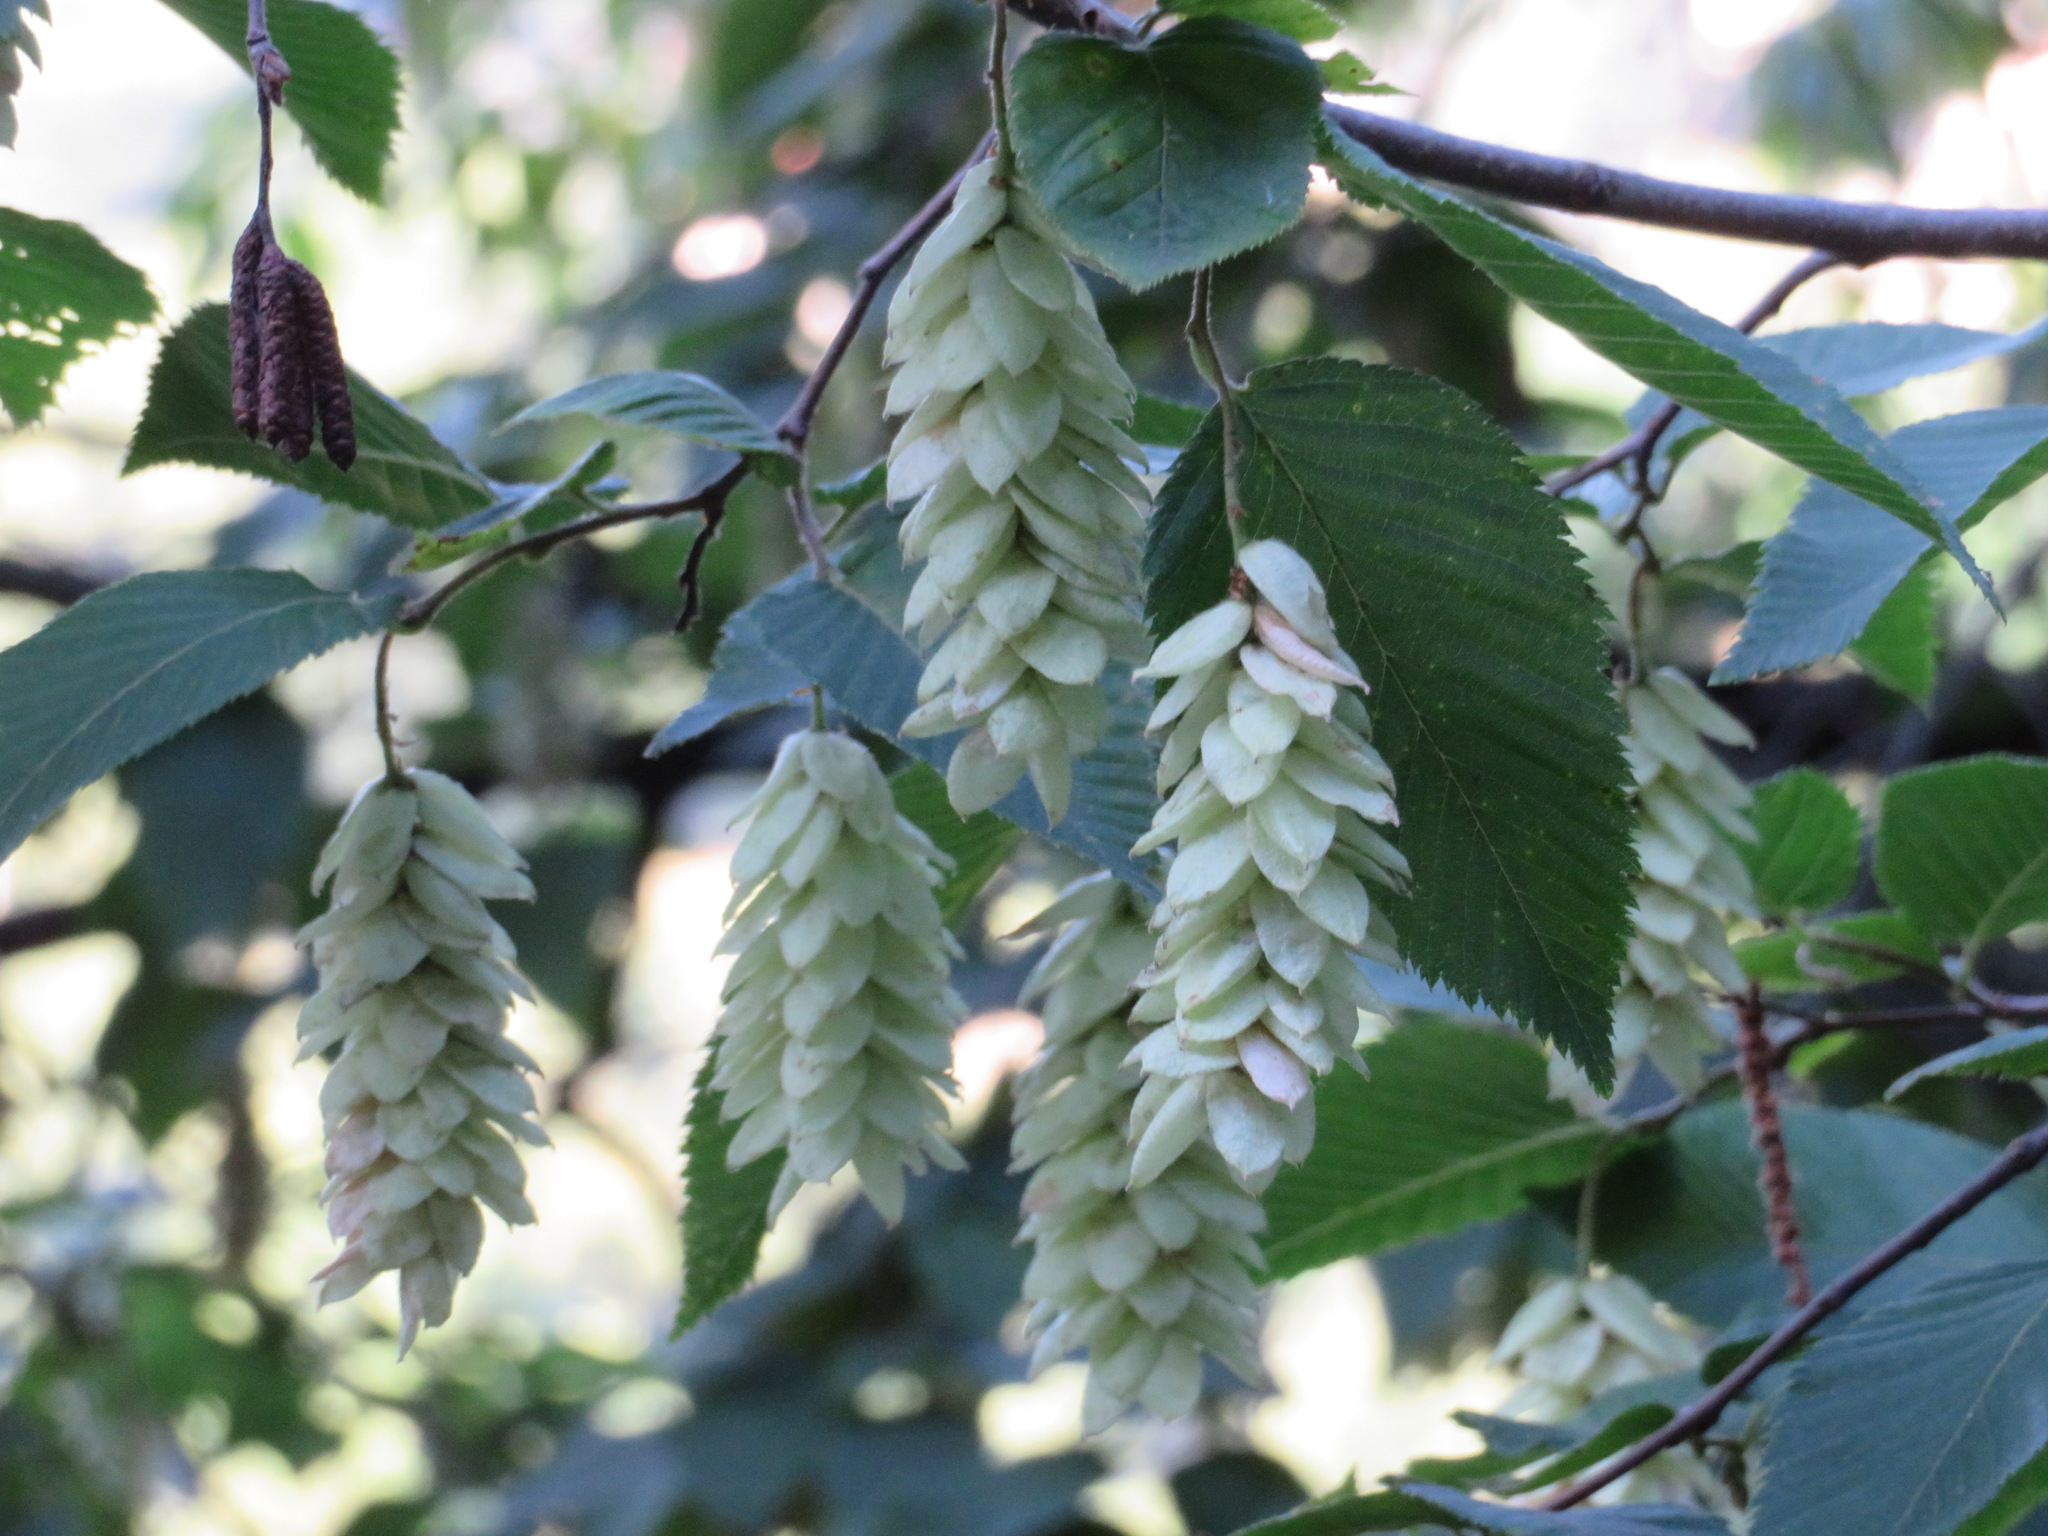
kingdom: Plantae
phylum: Tracheophyta
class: Magnoliopsida
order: Fagales
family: Betulaceae
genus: Ostrya
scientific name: Ostrya carpinifolia
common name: European hop-hornbeam
